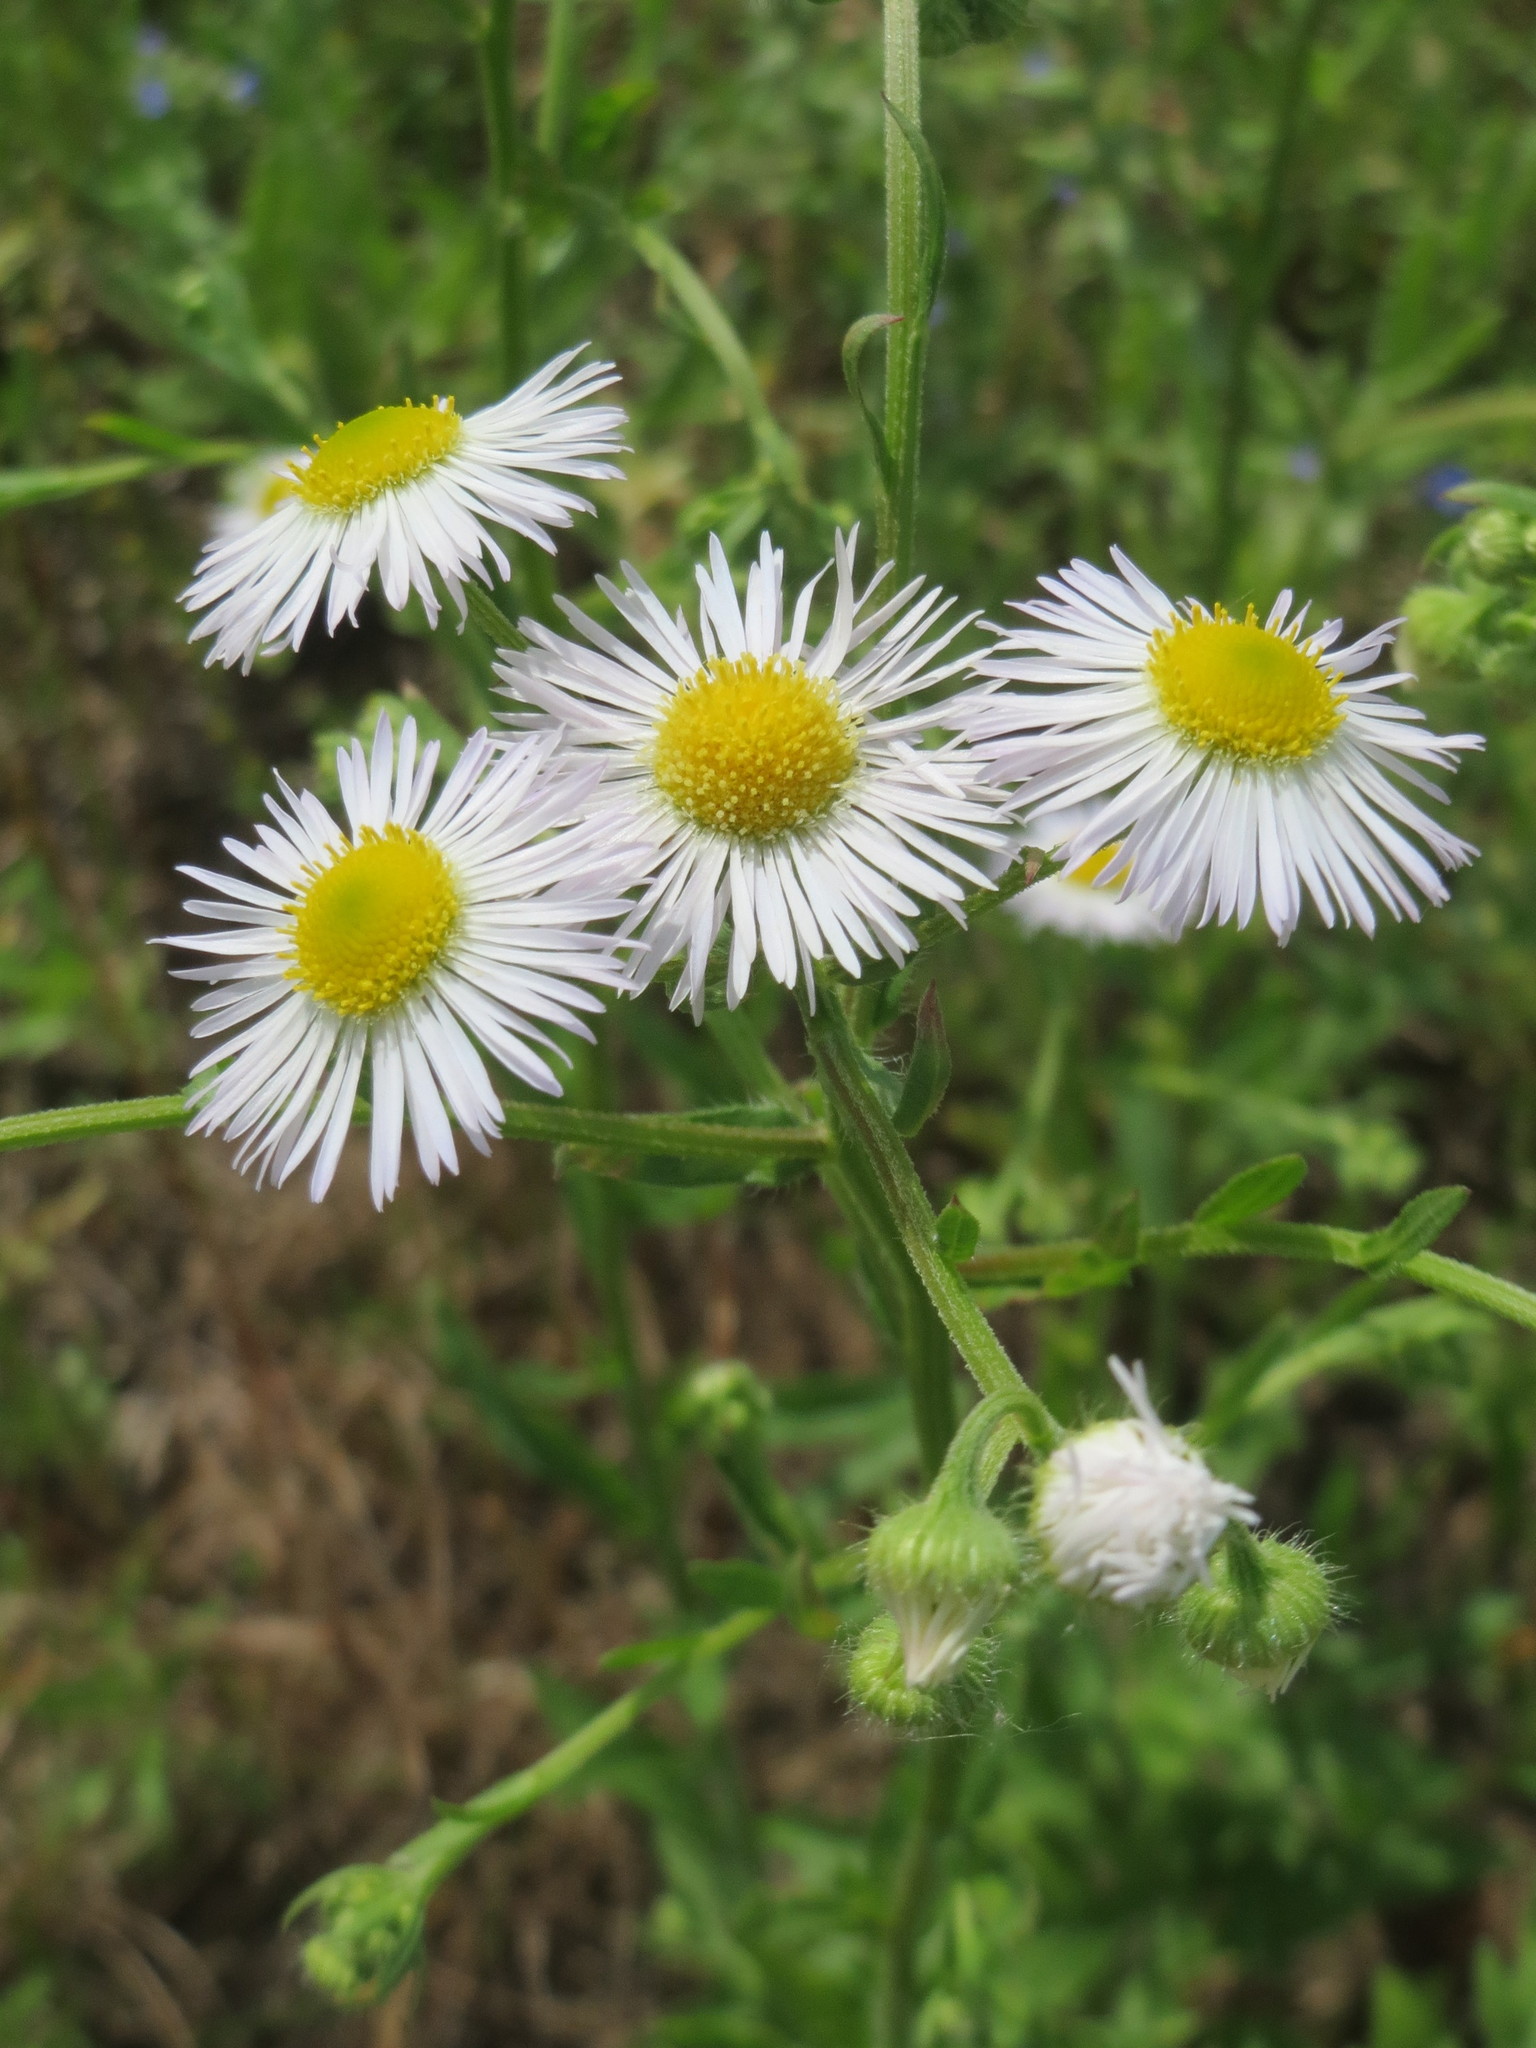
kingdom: Plantae
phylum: Tracheophyta
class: Magnoliopsida
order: Asterales
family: Asteraceae
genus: Erigeron
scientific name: Erigeron annuus
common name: Tall fleabane
